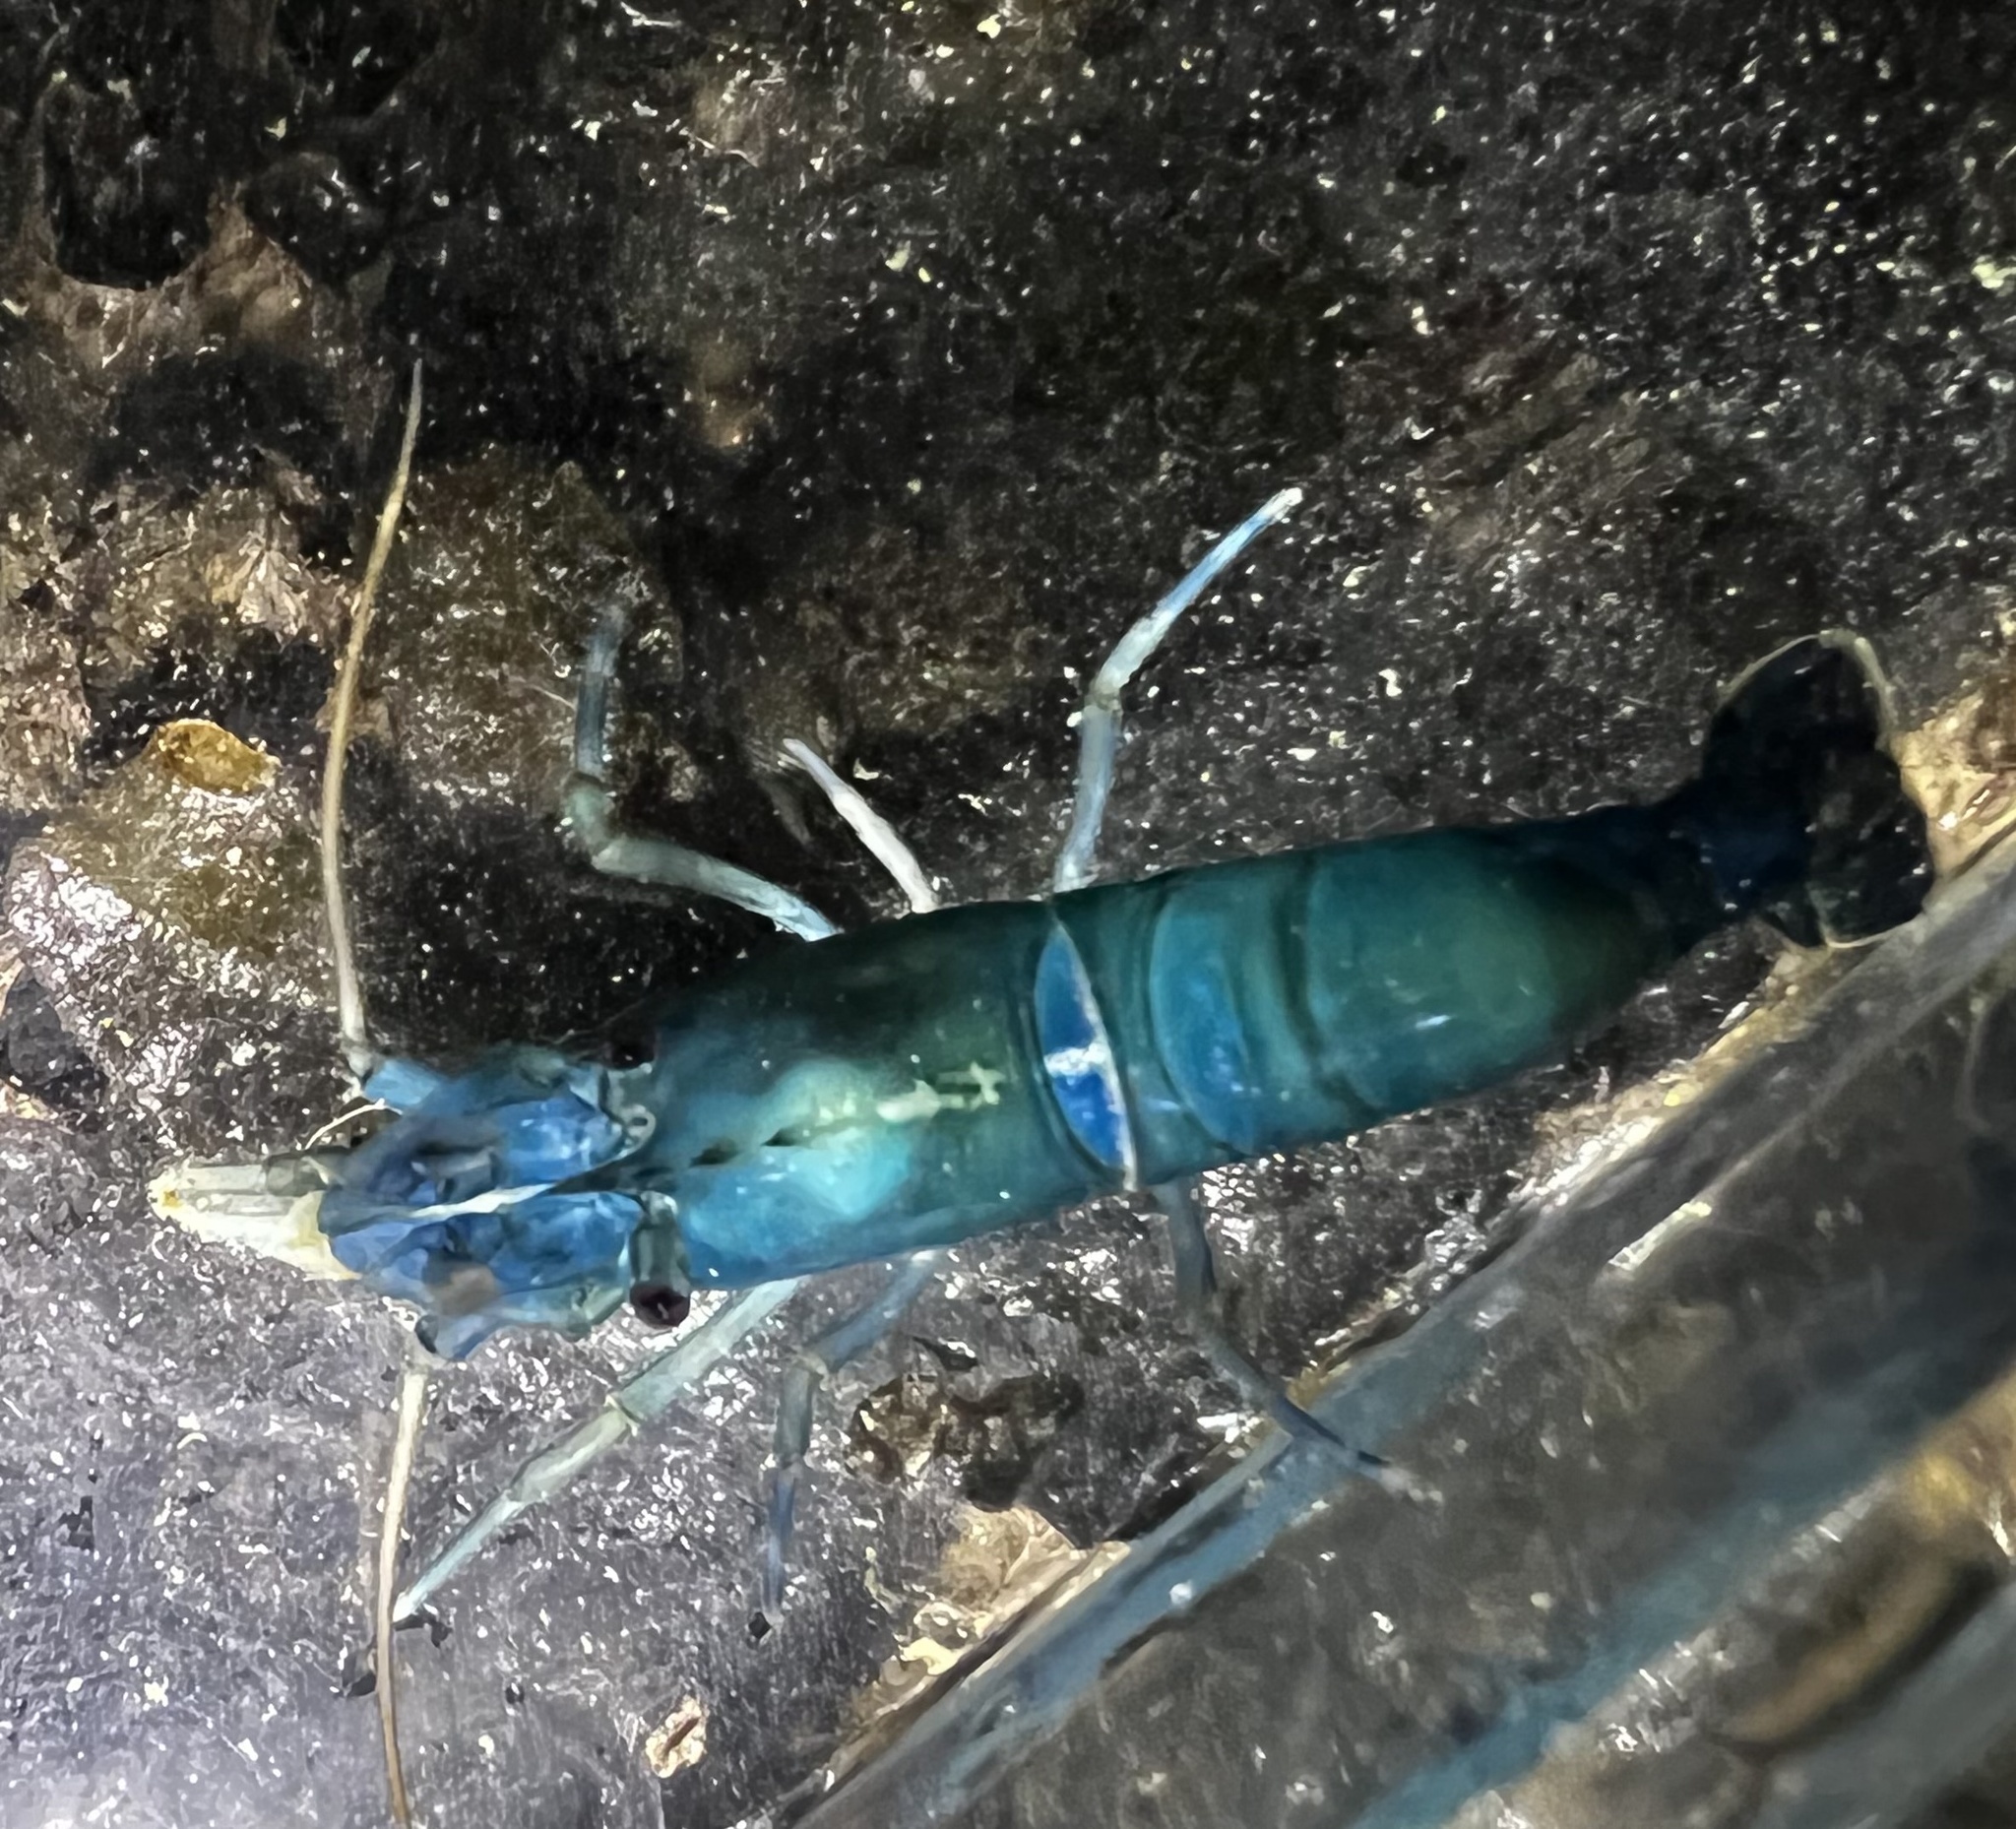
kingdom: Animalia
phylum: Arthropoda
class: Malacostraca
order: Decapoda
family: Thoridae
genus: Heptacarpus
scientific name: Heptacarpus brevirostris
